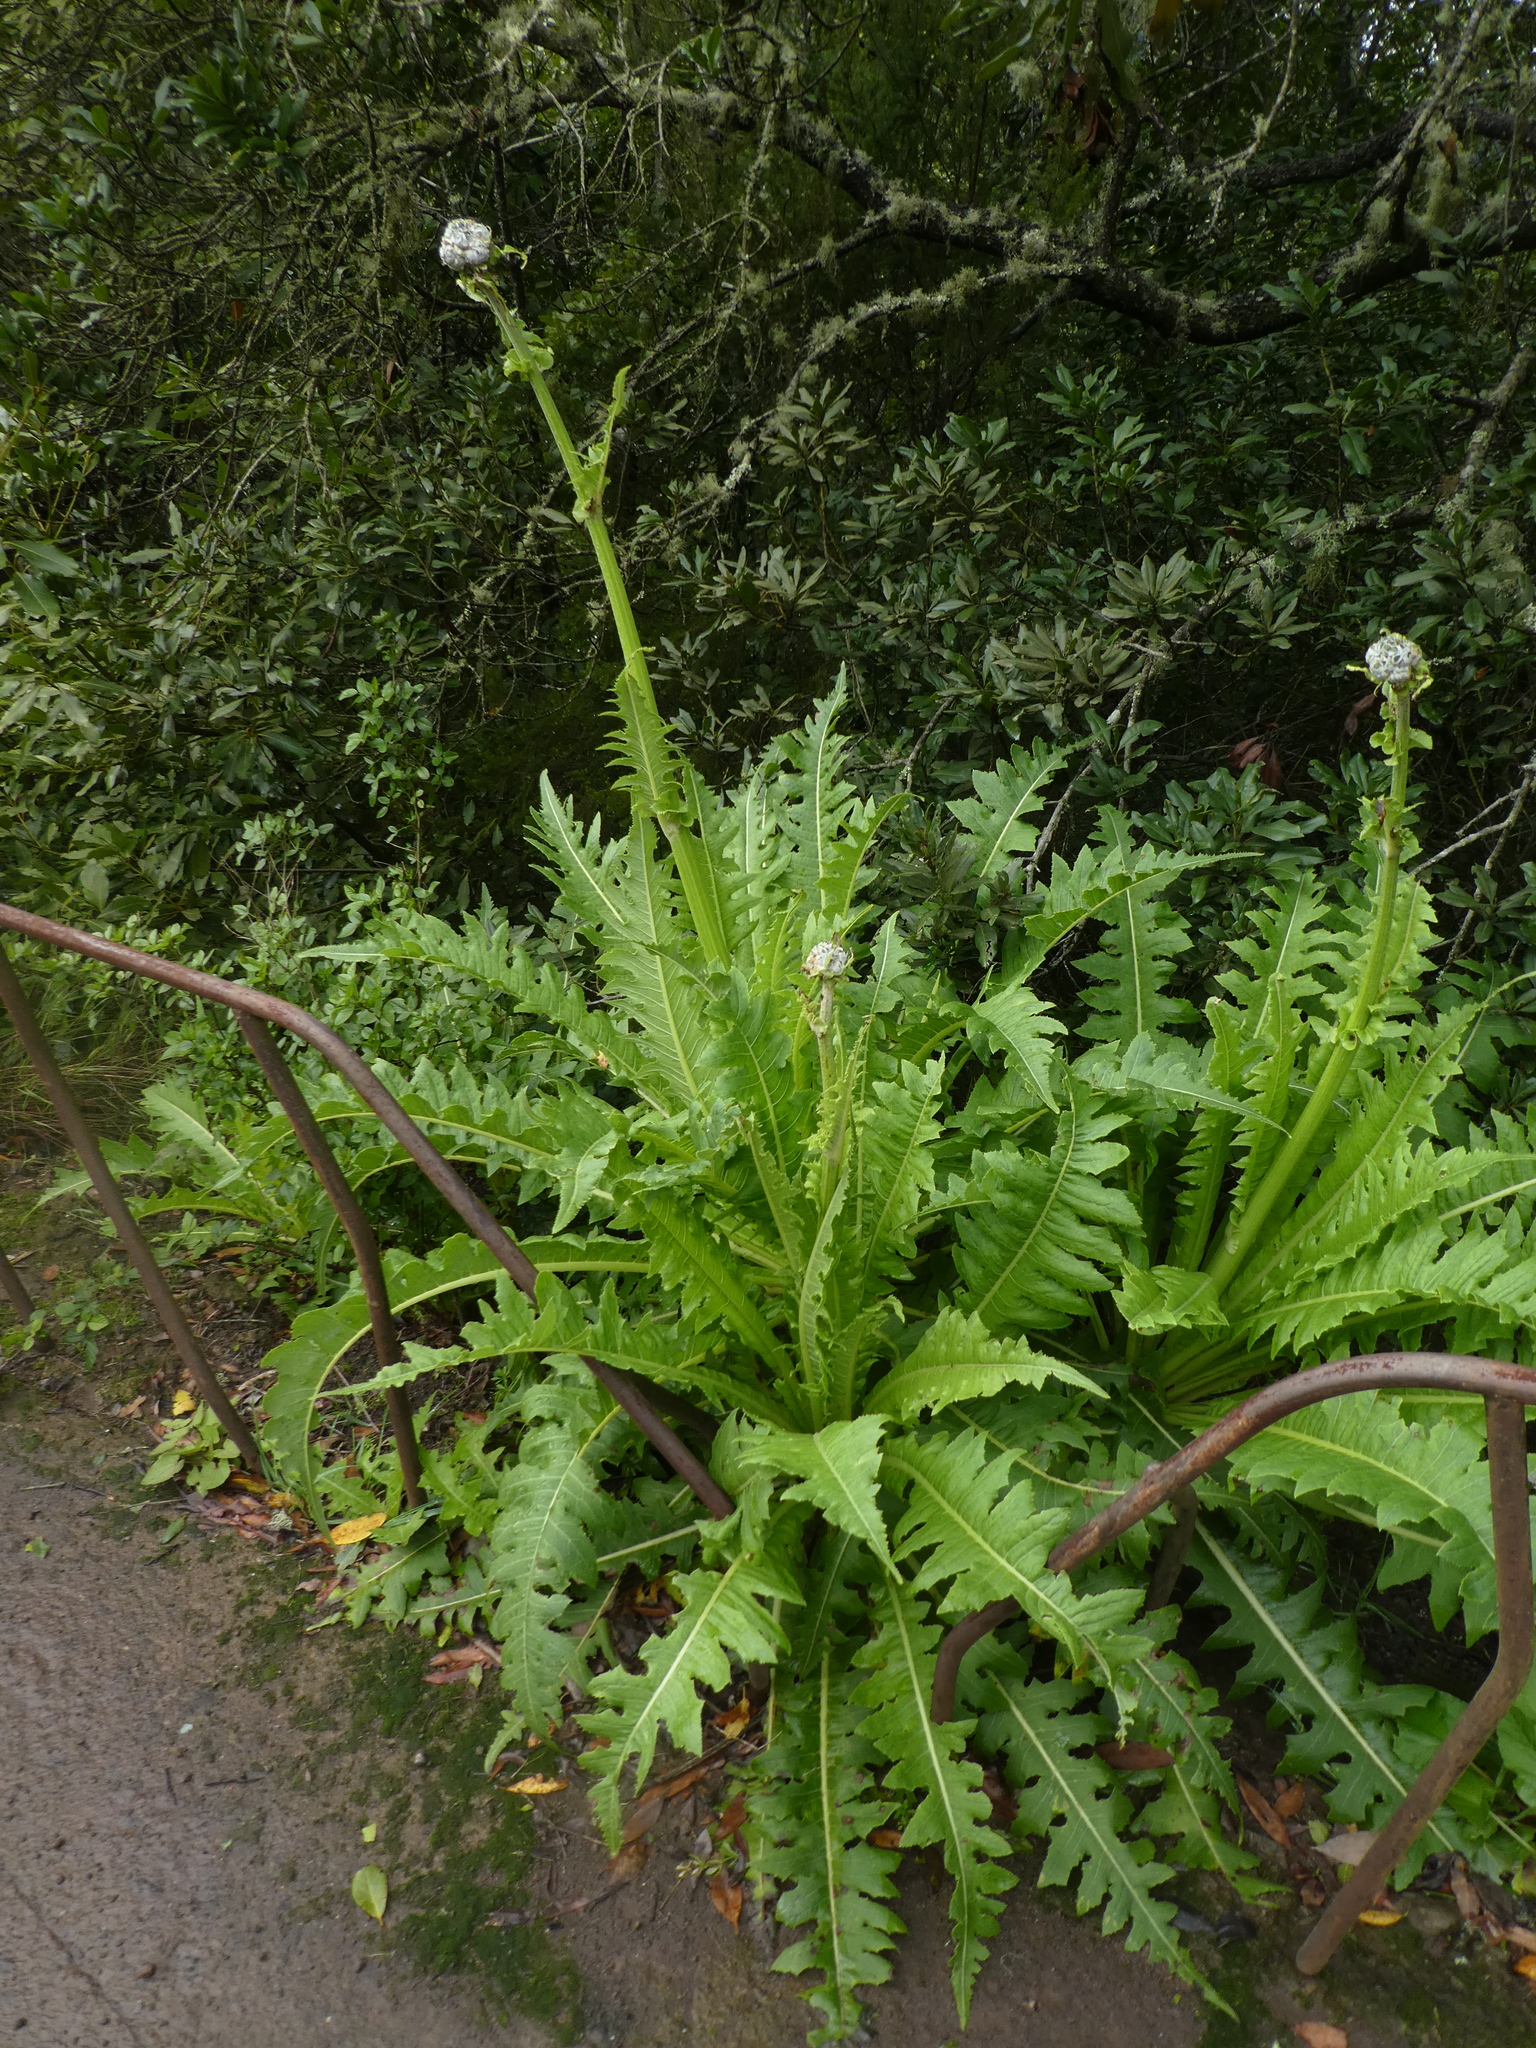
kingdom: Plantae
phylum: Tracheophyta
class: Magnoliopsida
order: Asterales
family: Asteraceae
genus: Sonchus
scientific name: Sonchus acaulis
